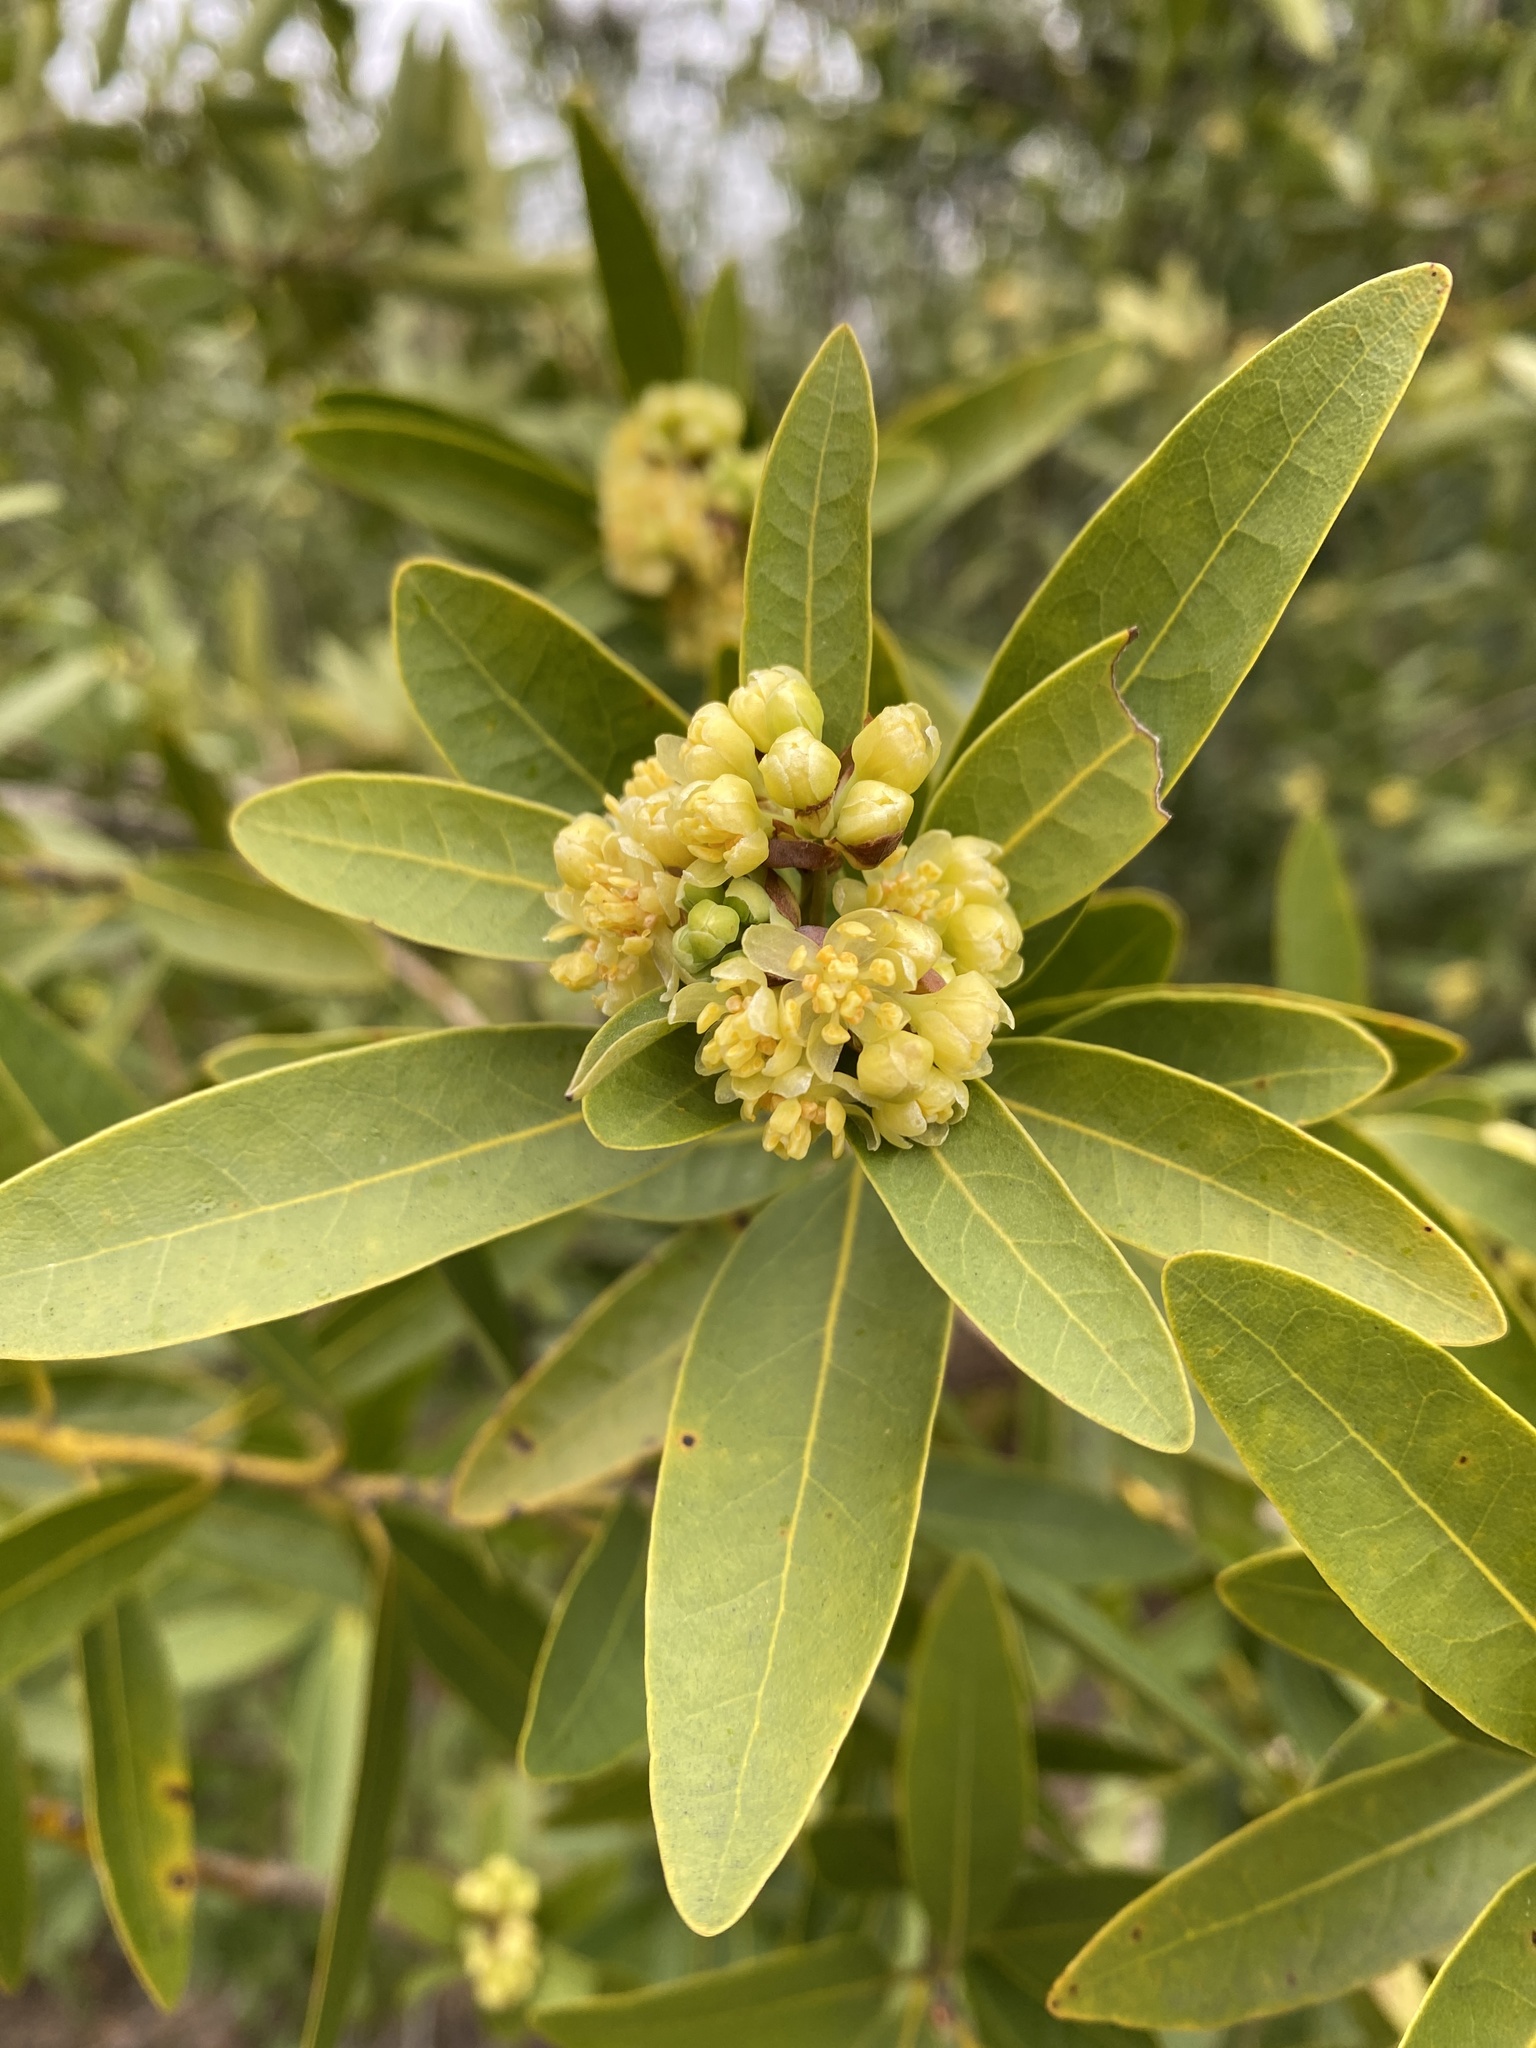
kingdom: Plantae
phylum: Tracheophyta
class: Magnoliopsida
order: Laurales
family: Lauraceae
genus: Umbellularia
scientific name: Umbellularia californica
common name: California bay
